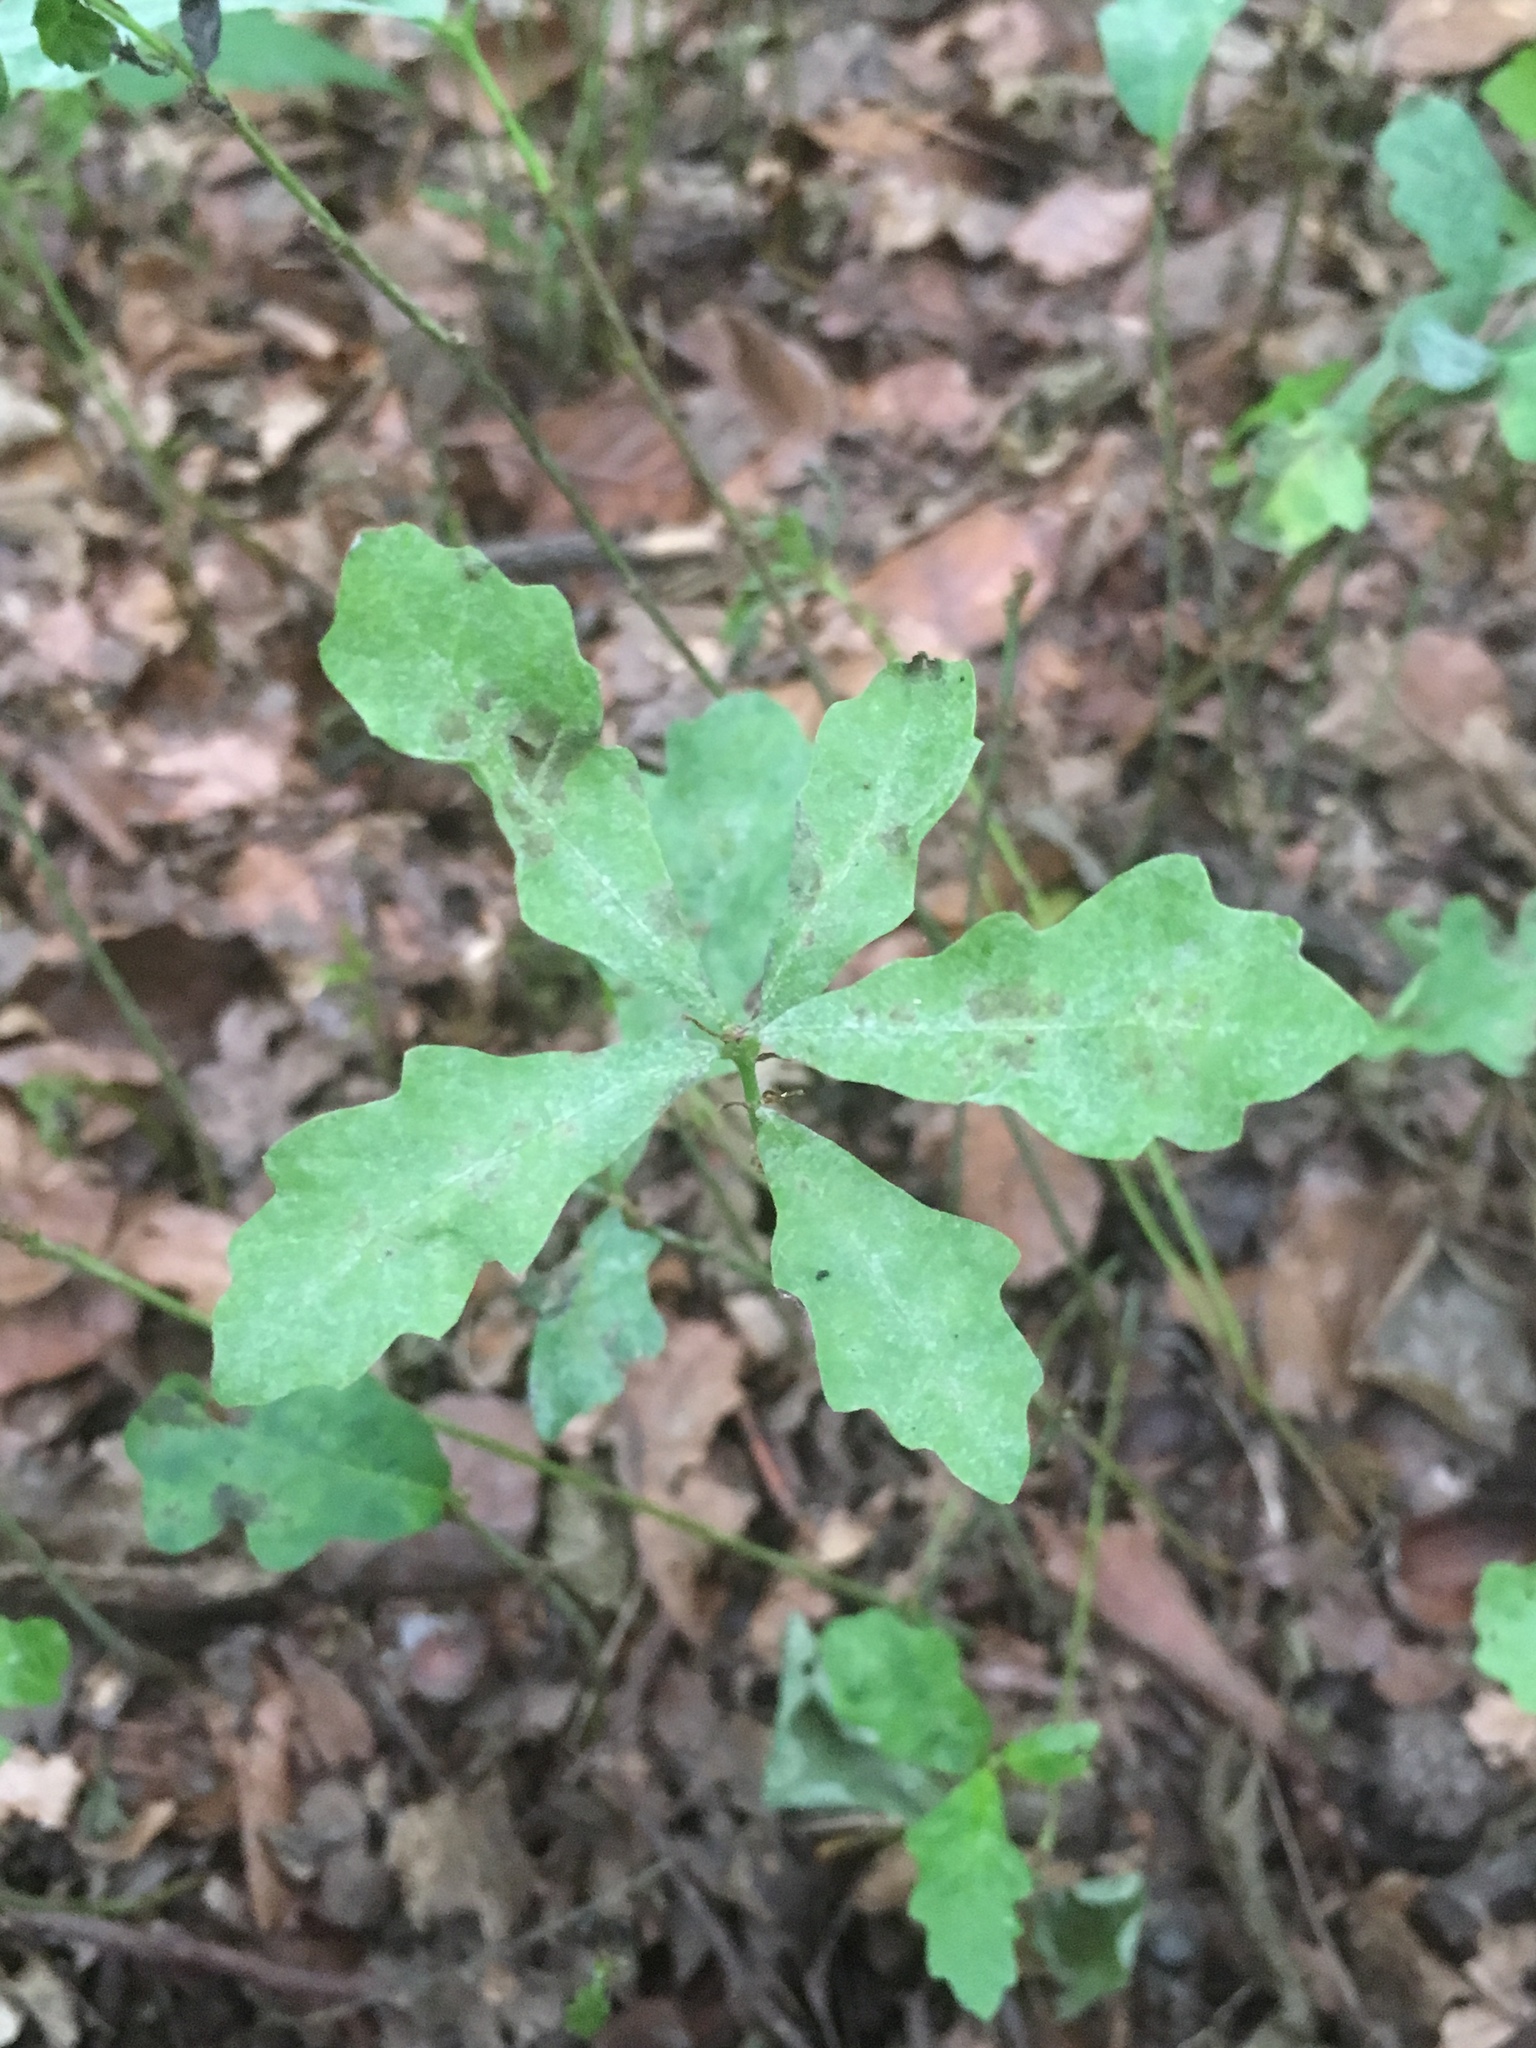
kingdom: Plantae
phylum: Tracheophyta
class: Magnoliopsida
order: Fagales
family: Fagaceae
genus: Quercus
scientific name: Quercus robur
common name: Pedunculate oak
